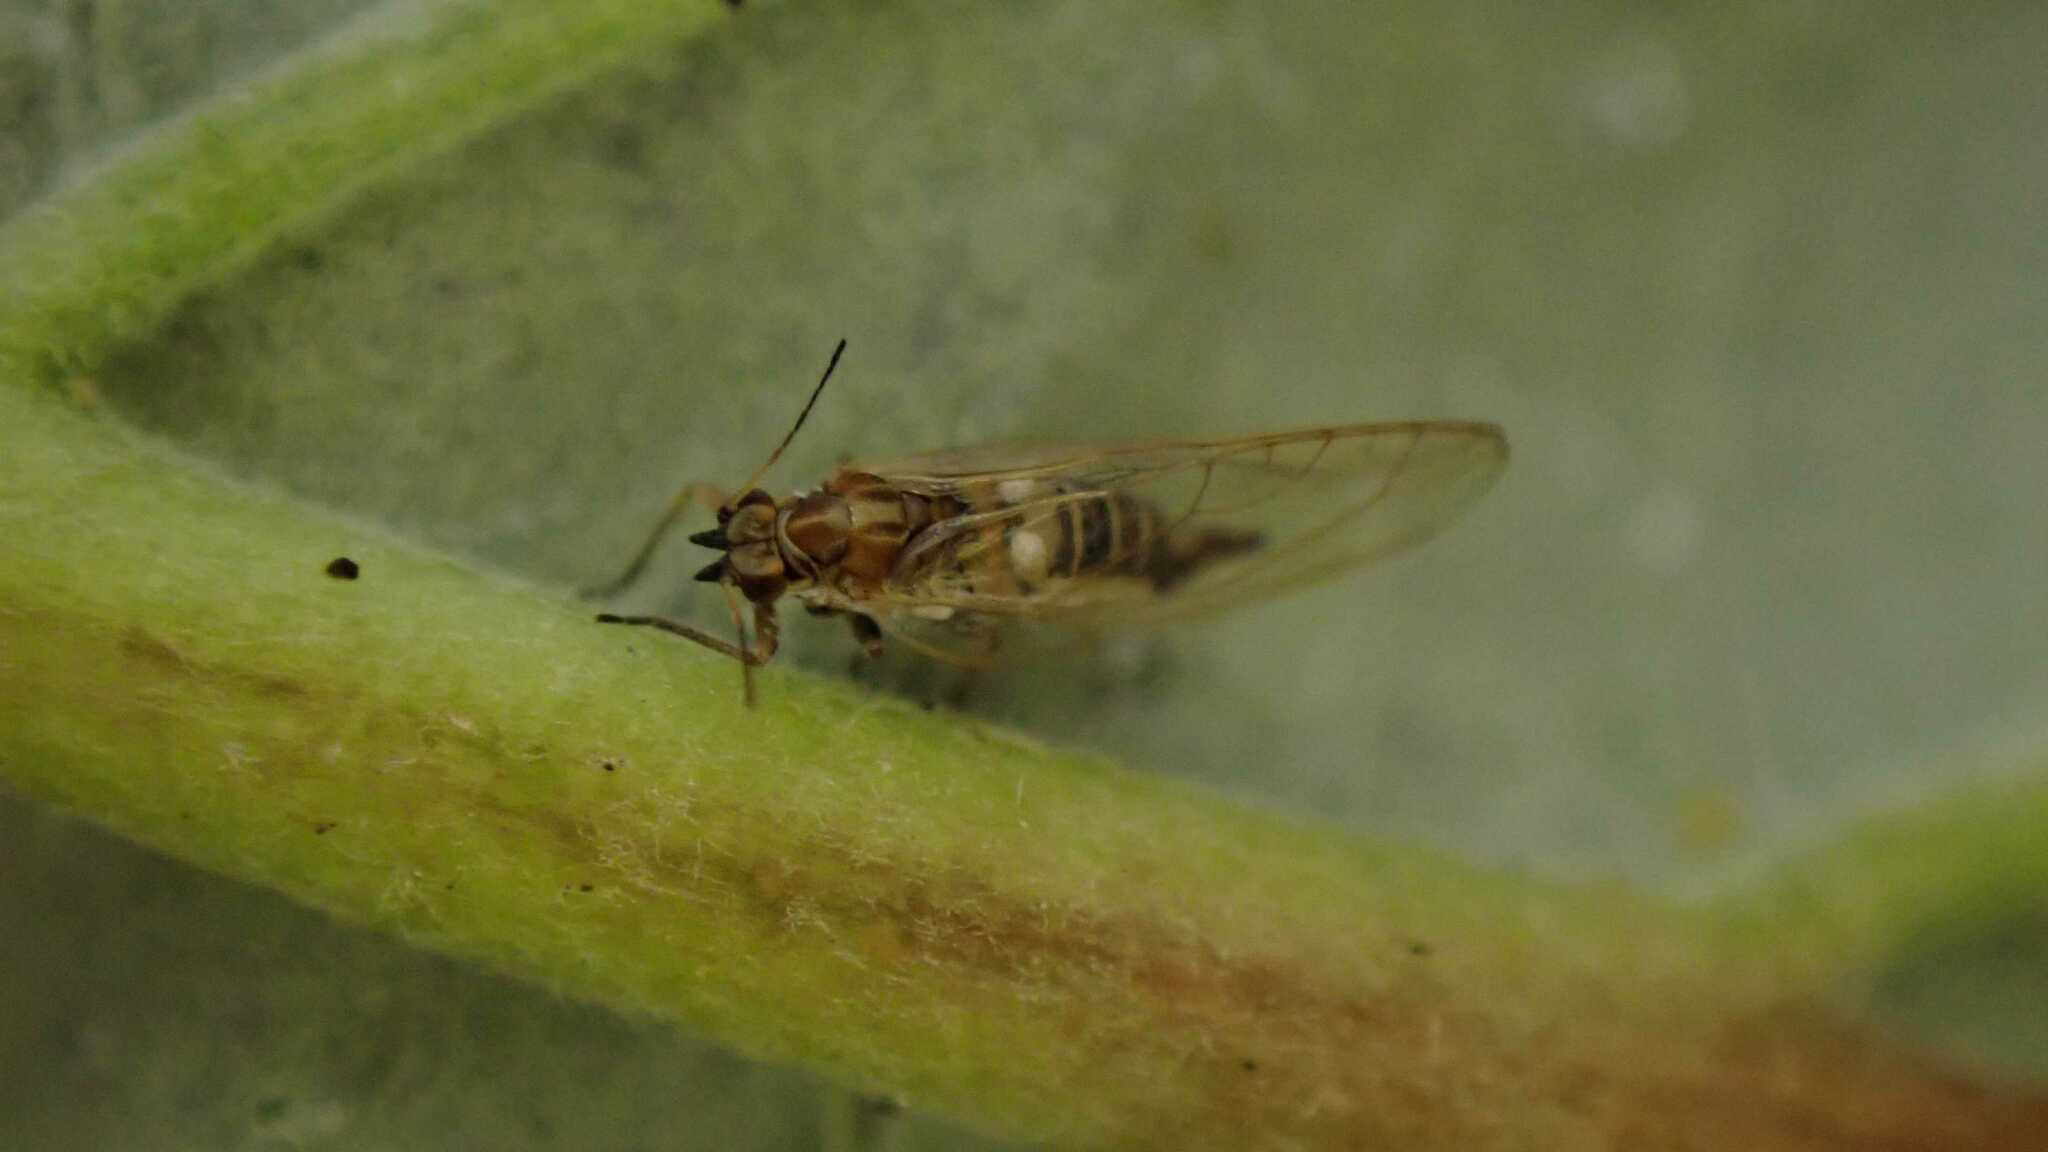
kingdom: Animalia
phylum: Arthropoda
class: Insecta
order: Hemiptera
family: Triozidae
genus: Trioza
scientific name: Trioza urticae
